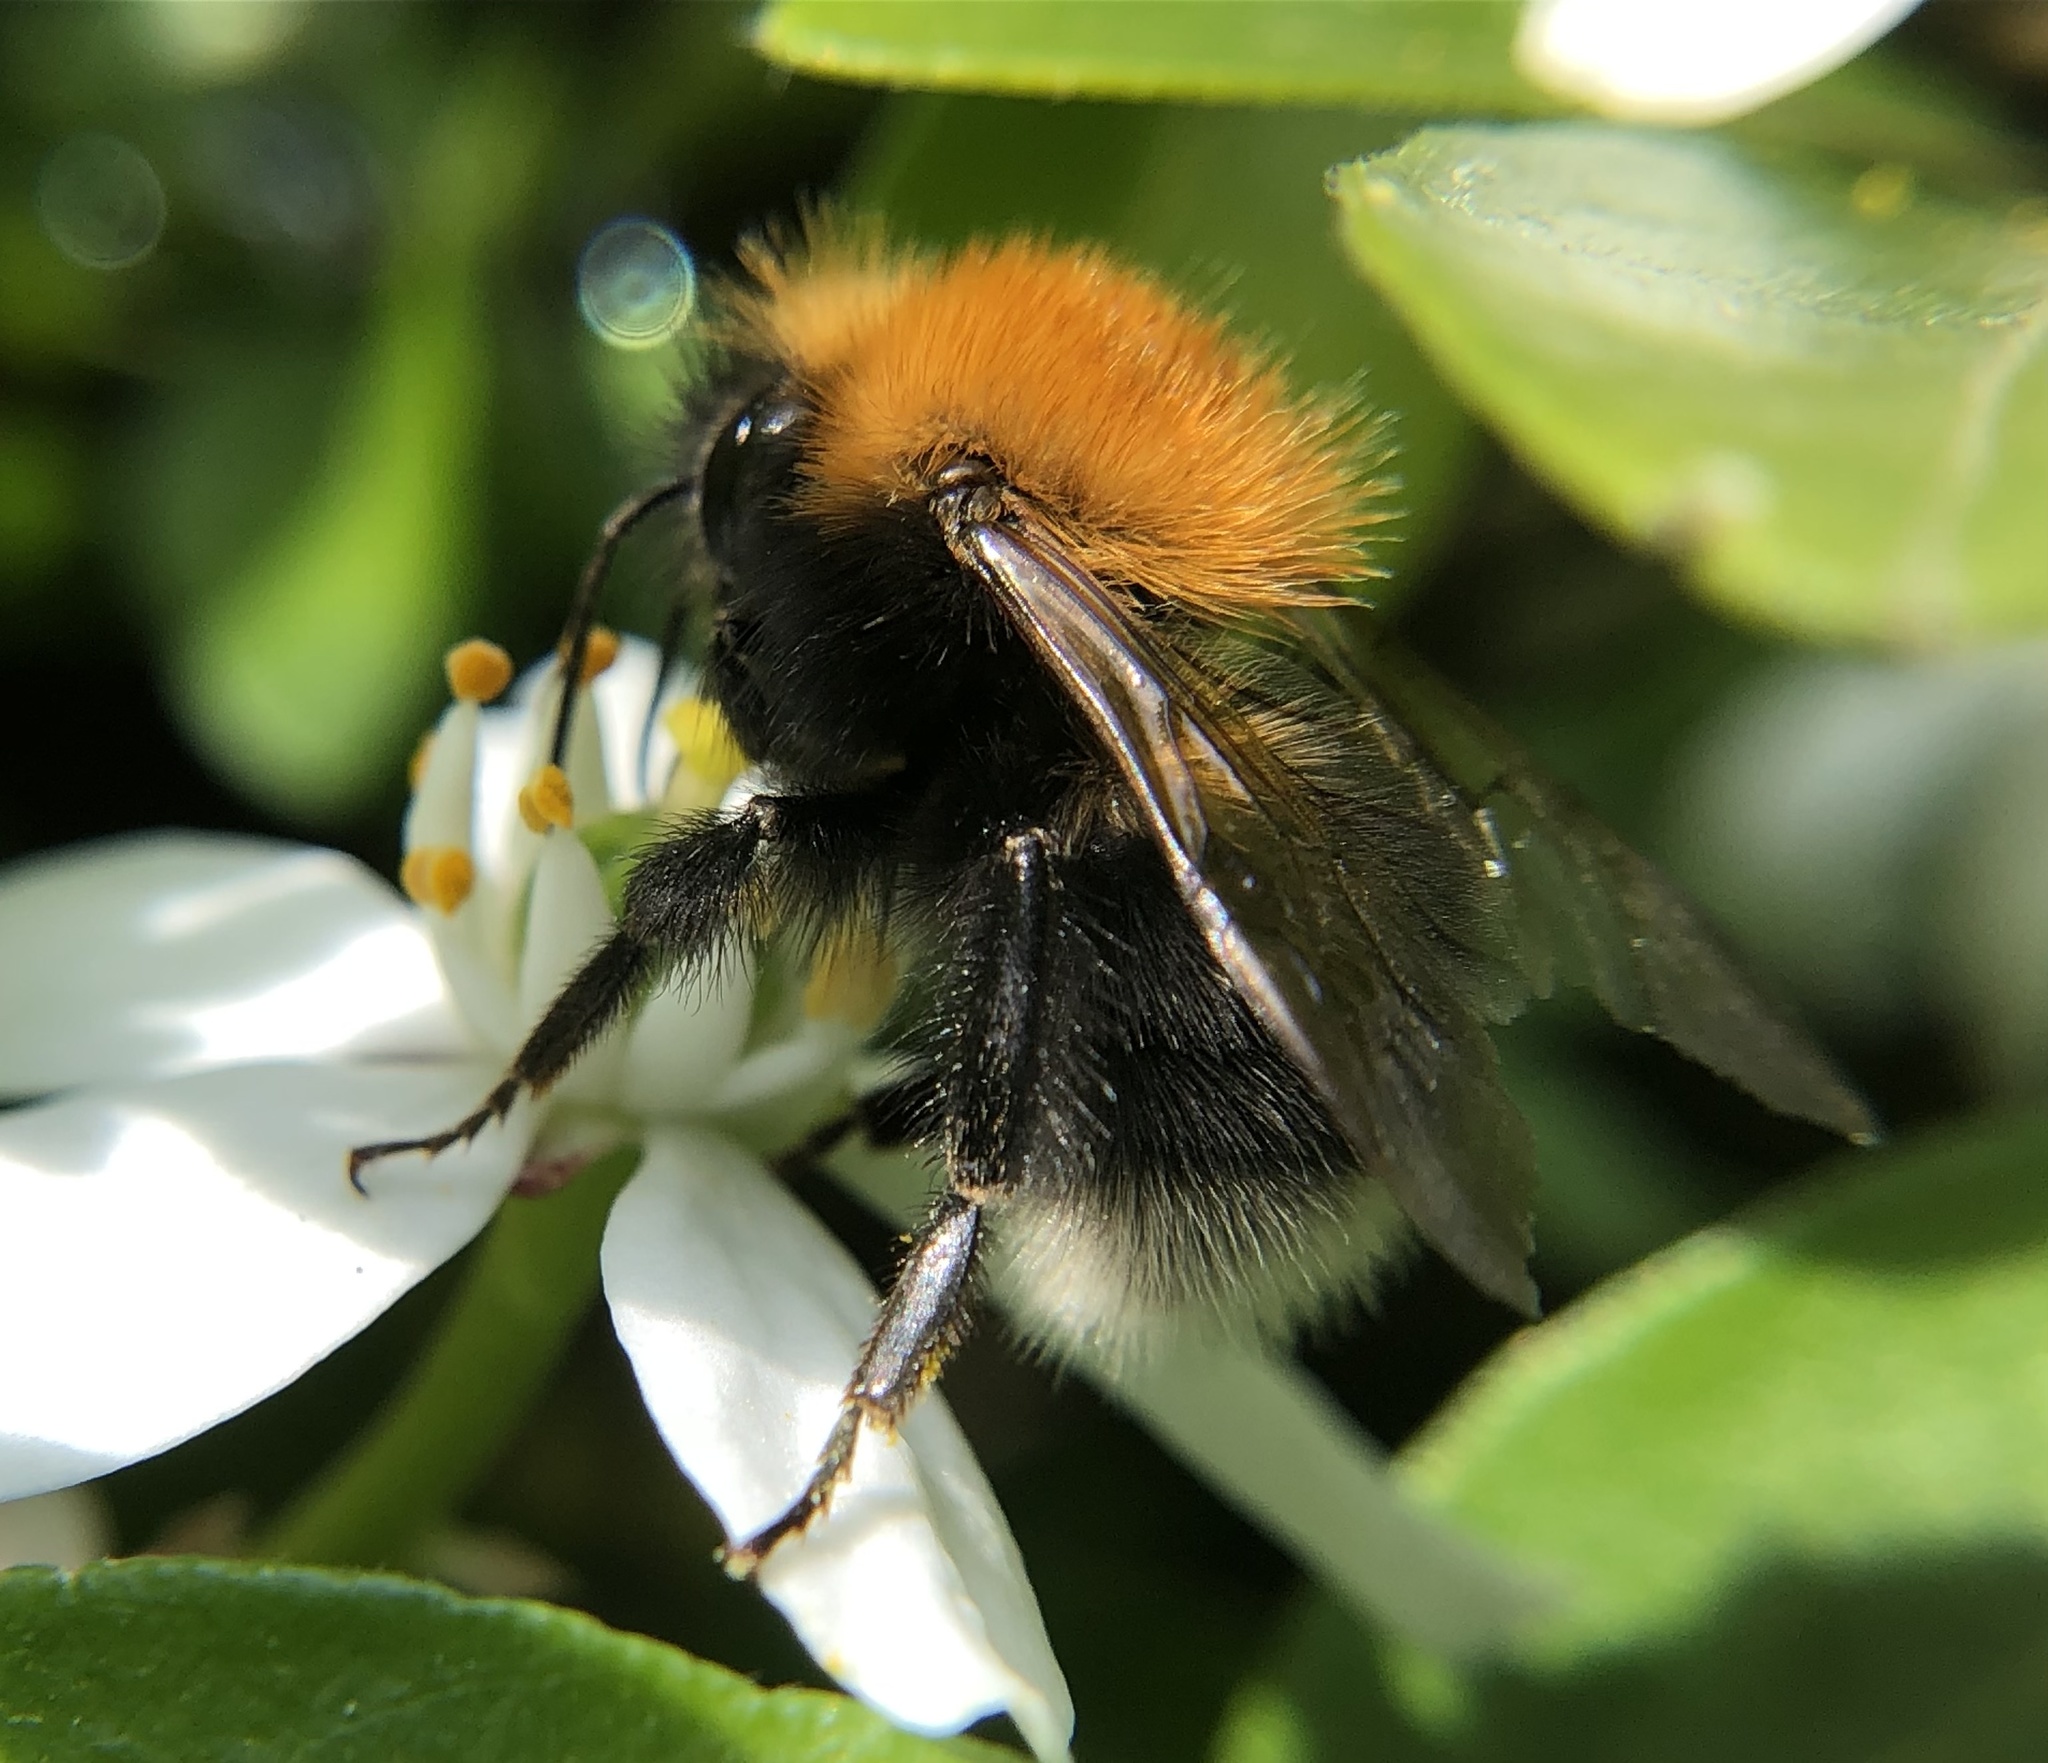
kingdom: Animalia
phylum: Arthropoda
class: Insecta
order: Hymenoptera
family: Apidae
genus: Bombus
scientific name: Bombus hypnorum
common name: New garden bumblebee
